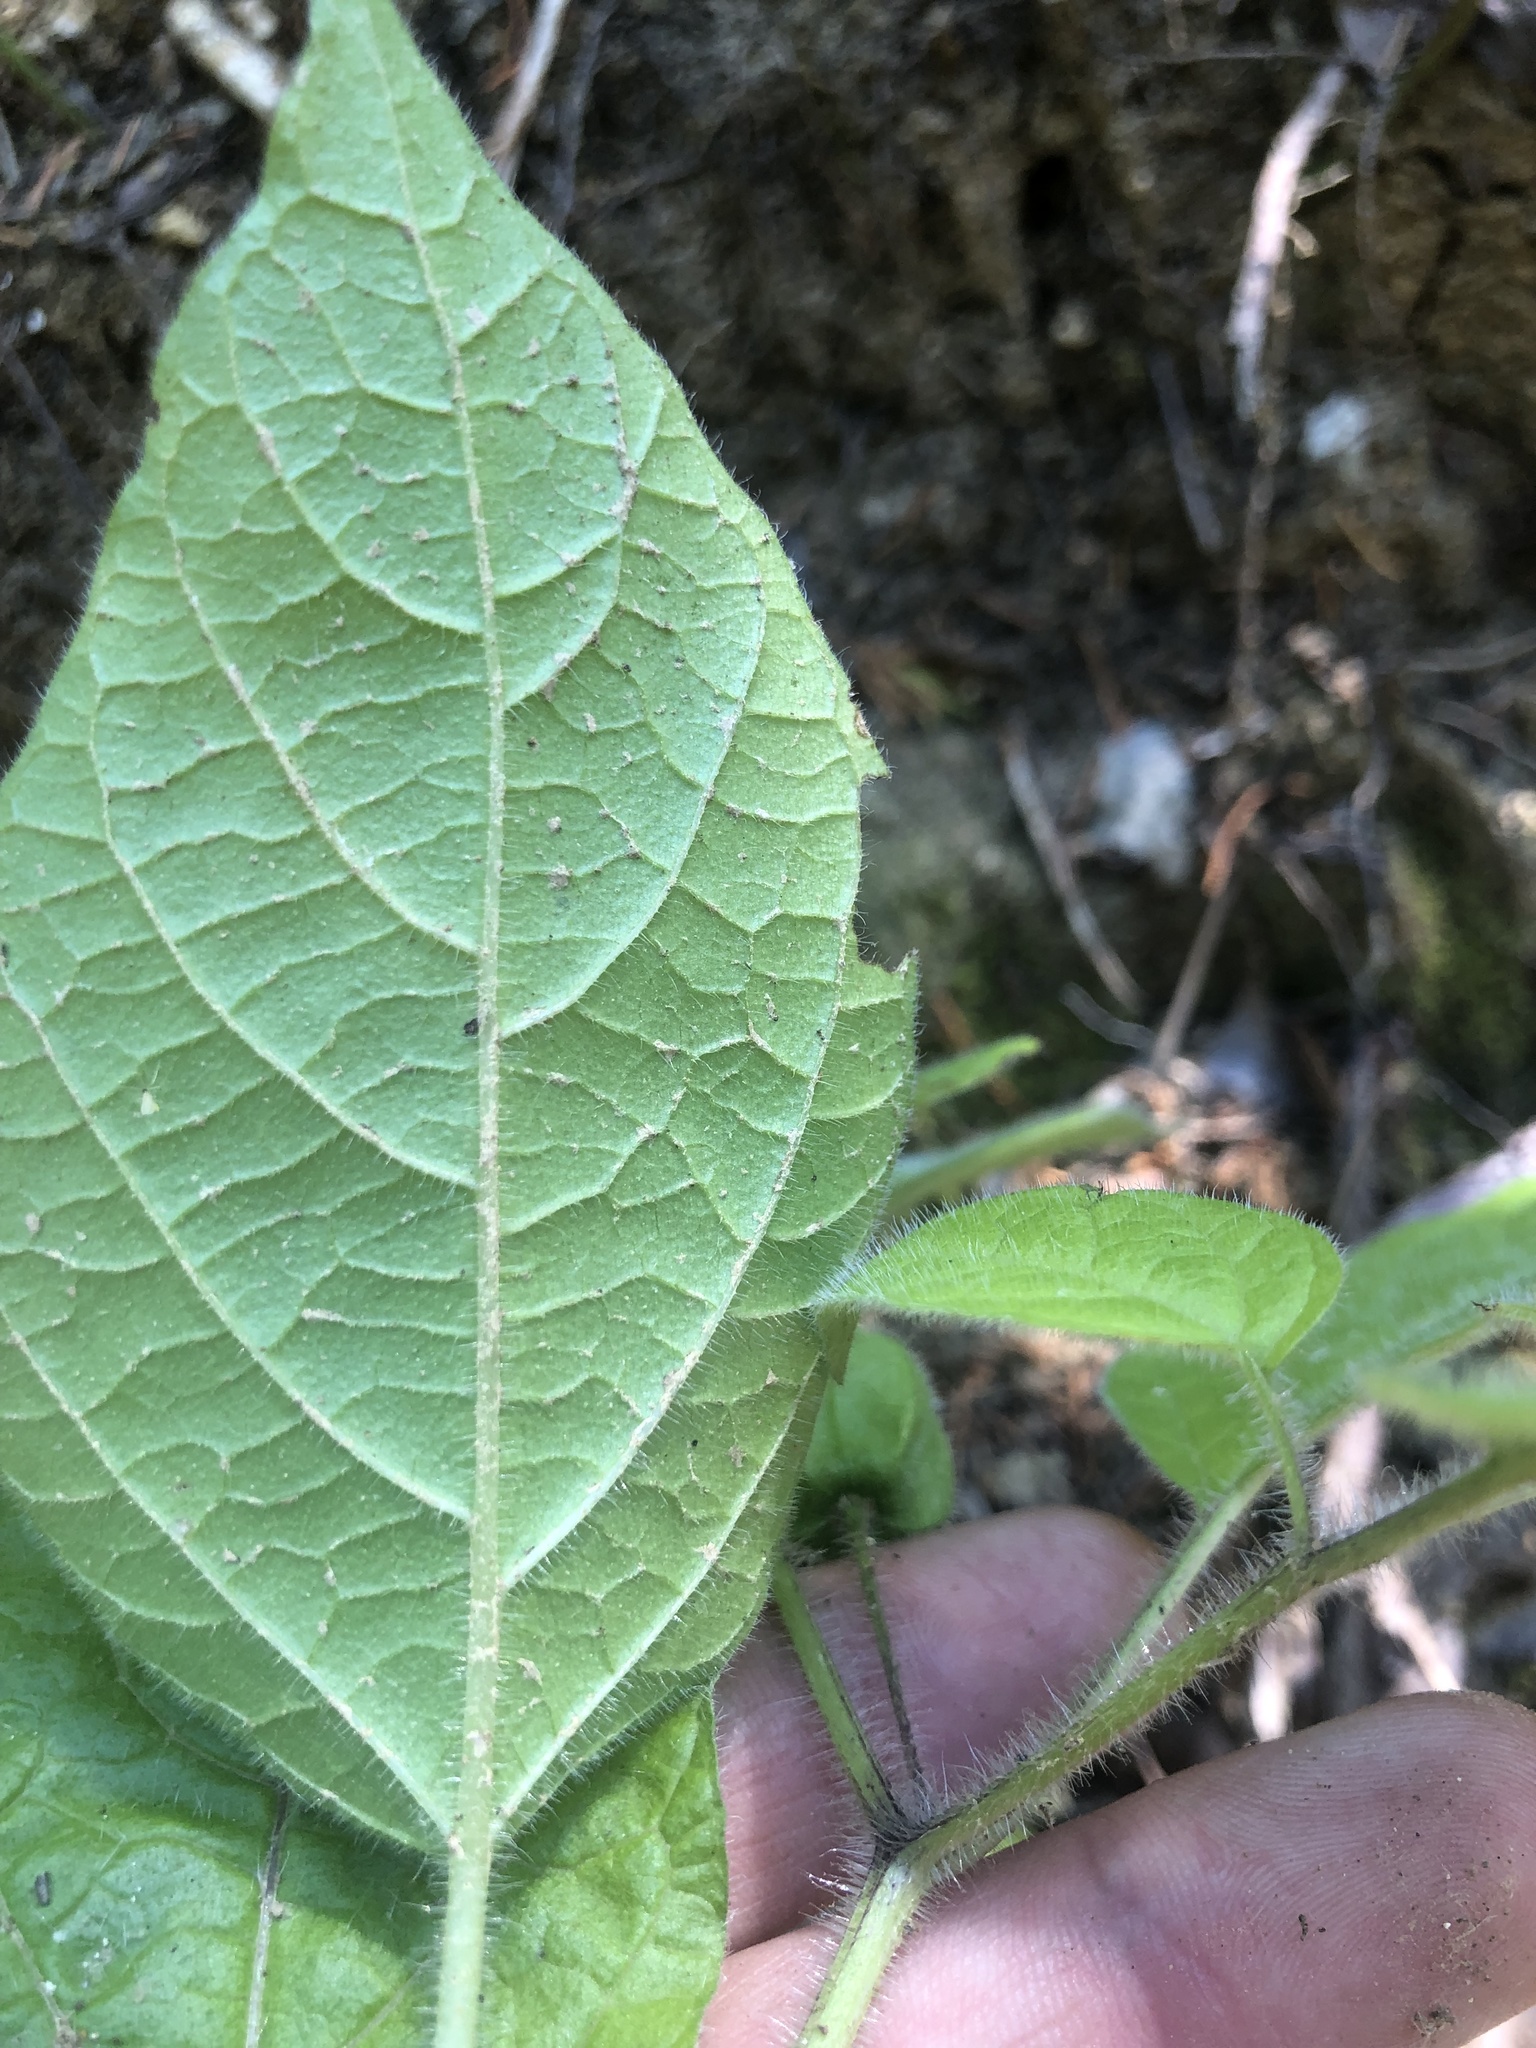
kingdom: Plantae
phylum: Tracheophyta
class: Magnoliopsida
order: Solanales
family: Solanaceae
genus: Physalis
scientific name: Physalis heterophylla
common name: Clammy ground-cherry
